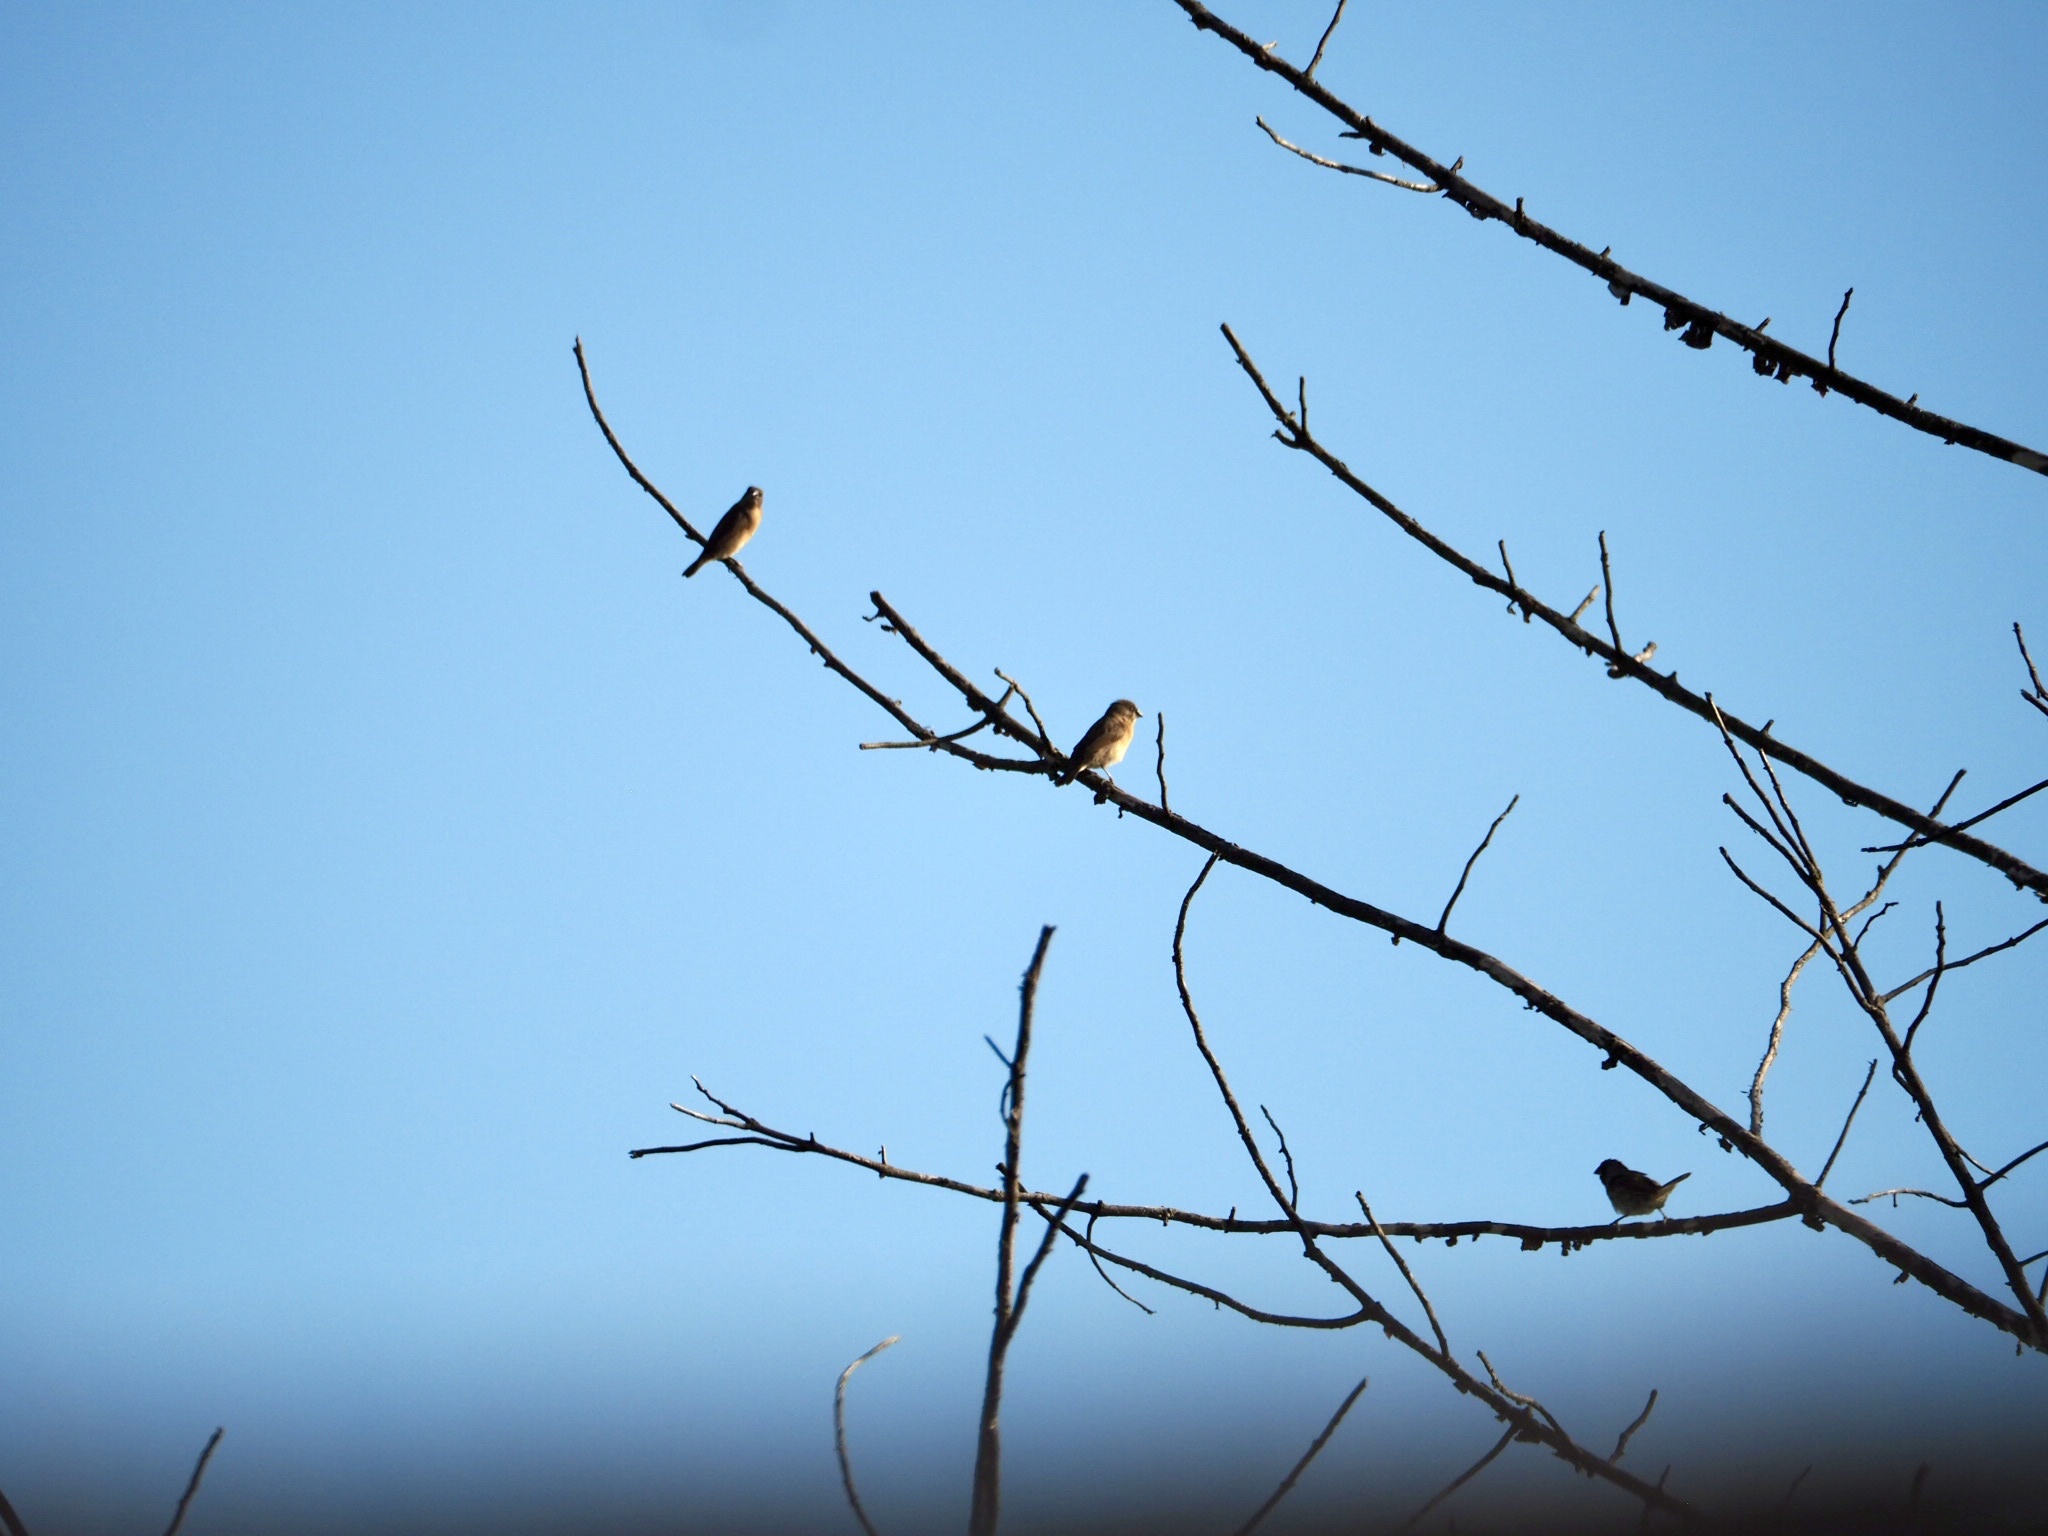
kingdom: Animalia
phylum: Chordata
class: Aves
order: Passeriformes
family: Estrildidae
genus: Lonchura
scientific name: Lonchura punctulata
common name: Scaly-breasted munia
